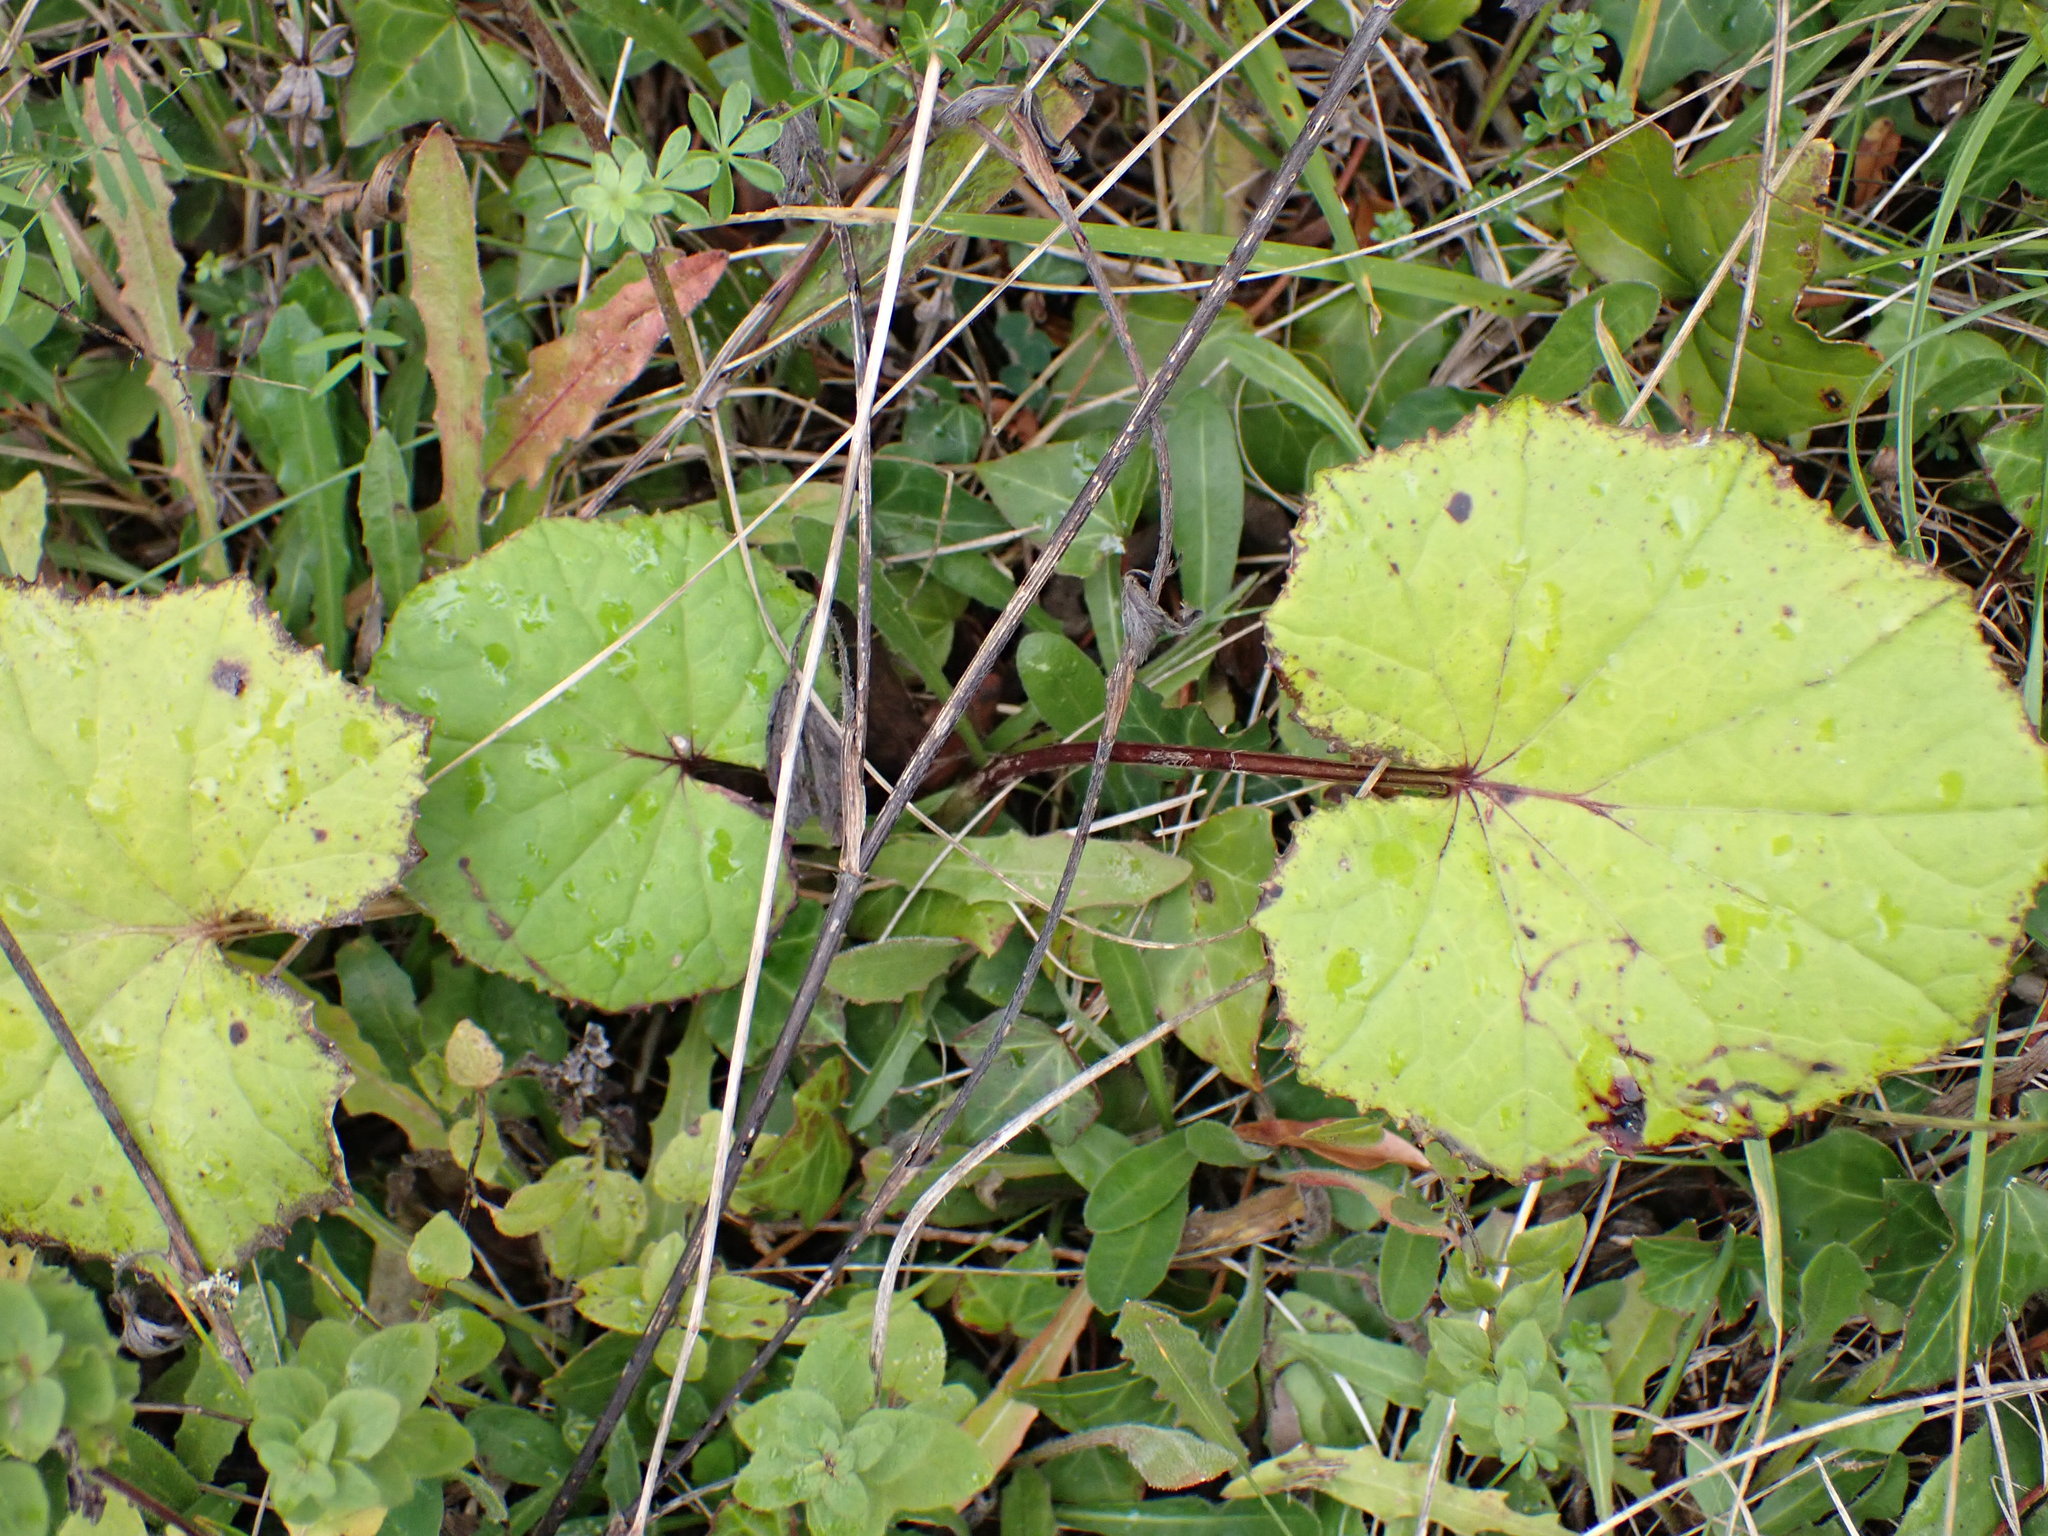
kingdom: Plantae
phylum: Tracheophyta
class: Magnoliopsida
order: Asterales
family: Asteraceae
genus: Tussilago
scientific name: Tussilago farfara
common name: Coltsfoot
